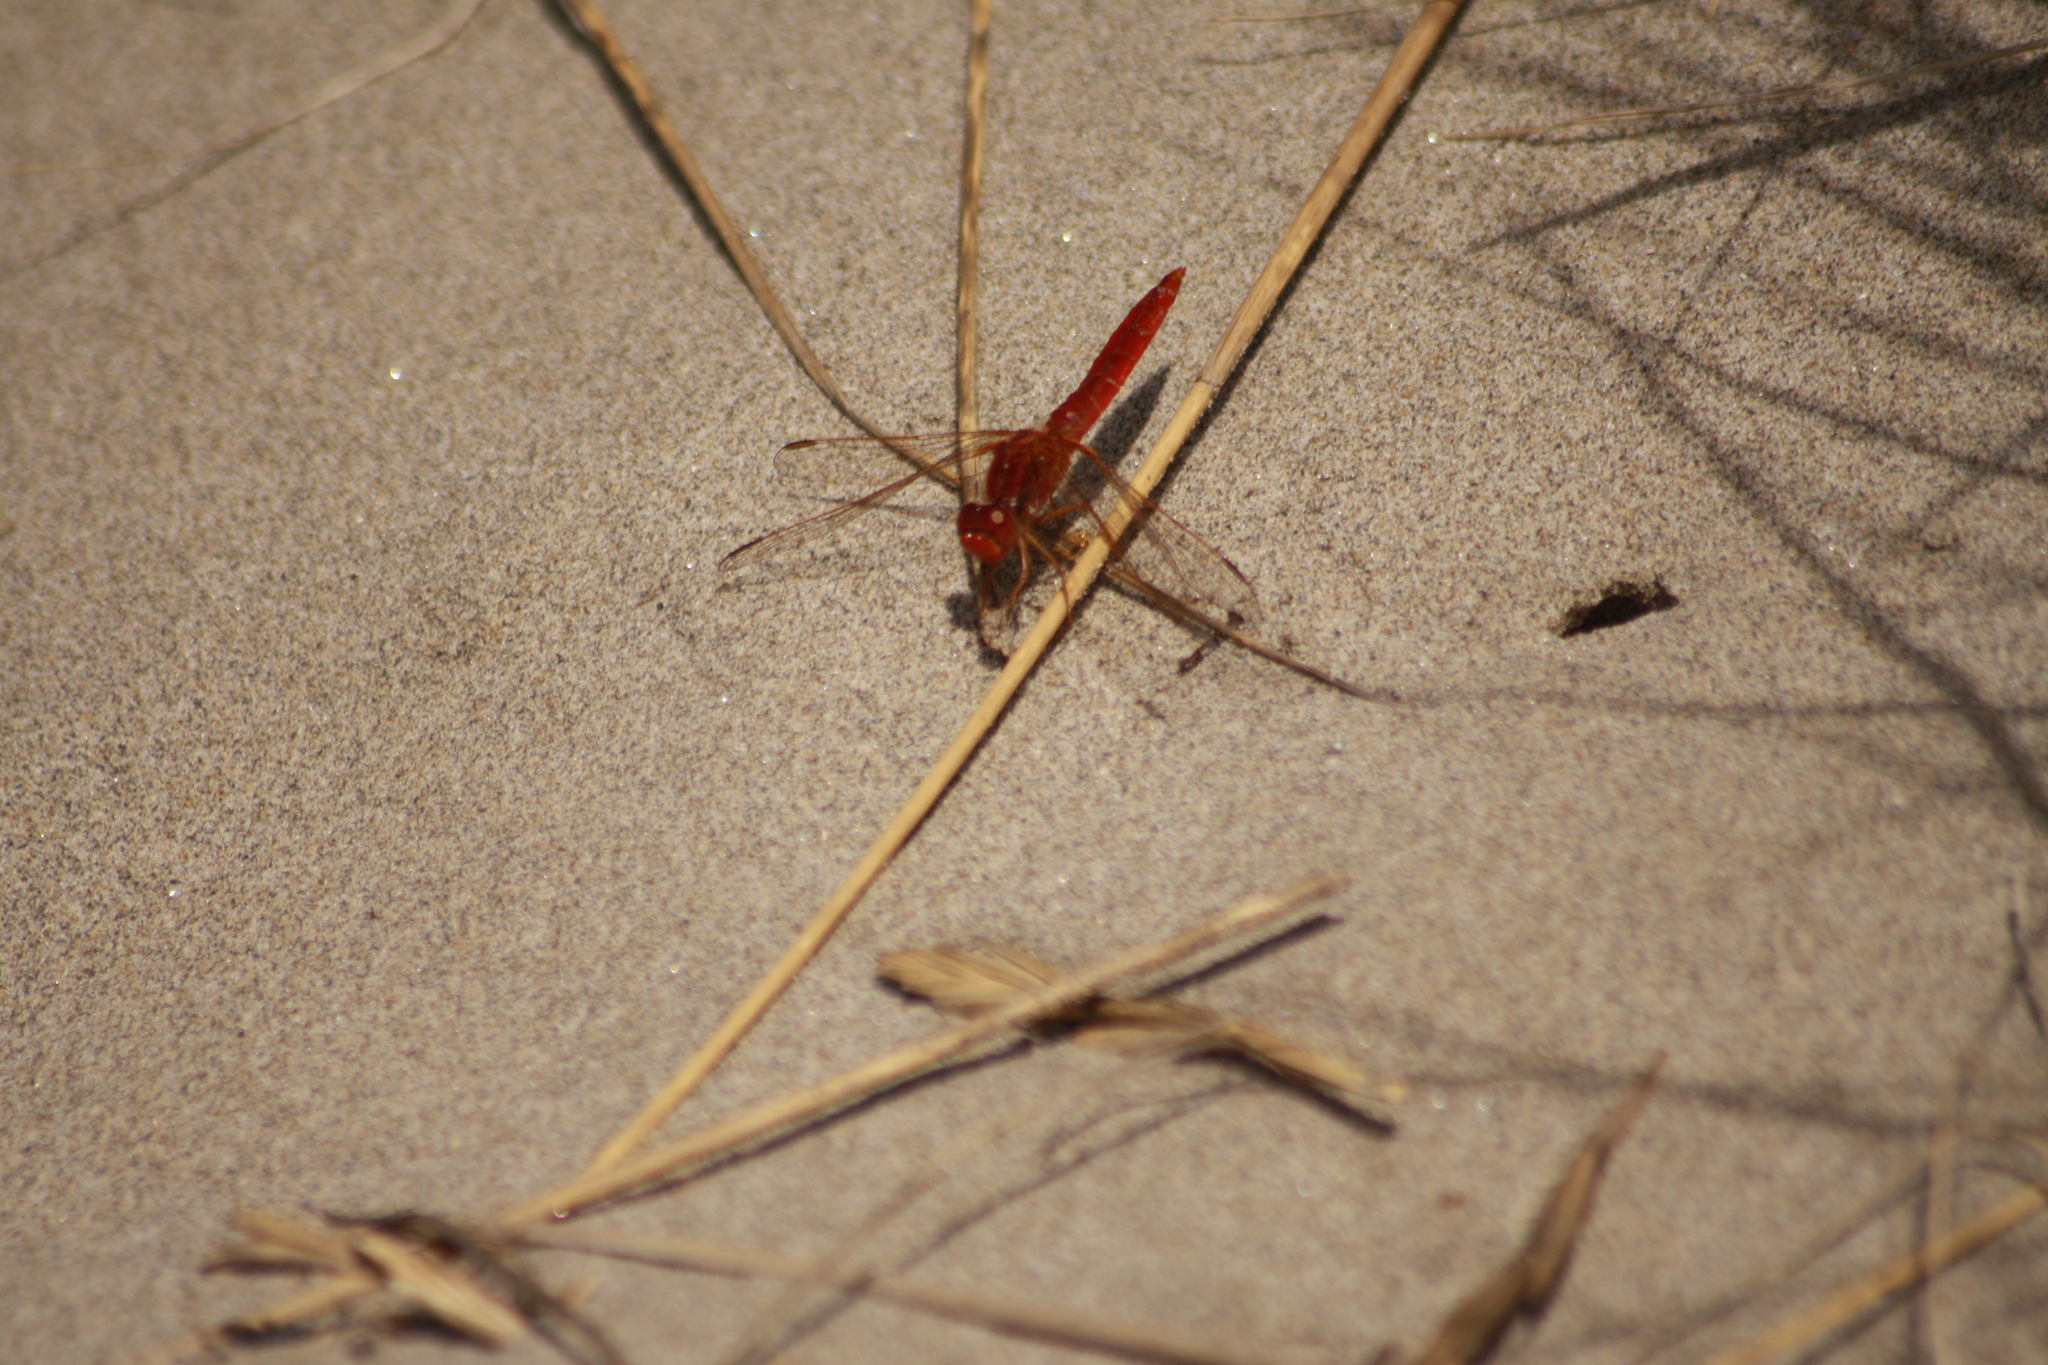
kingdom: Animalia
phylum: Arthropoda
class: Insecta
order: Odonata
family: Libellulidae
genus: Crocothemis
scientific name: Crocothemis erythraea
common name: Scarlet dragonfly
